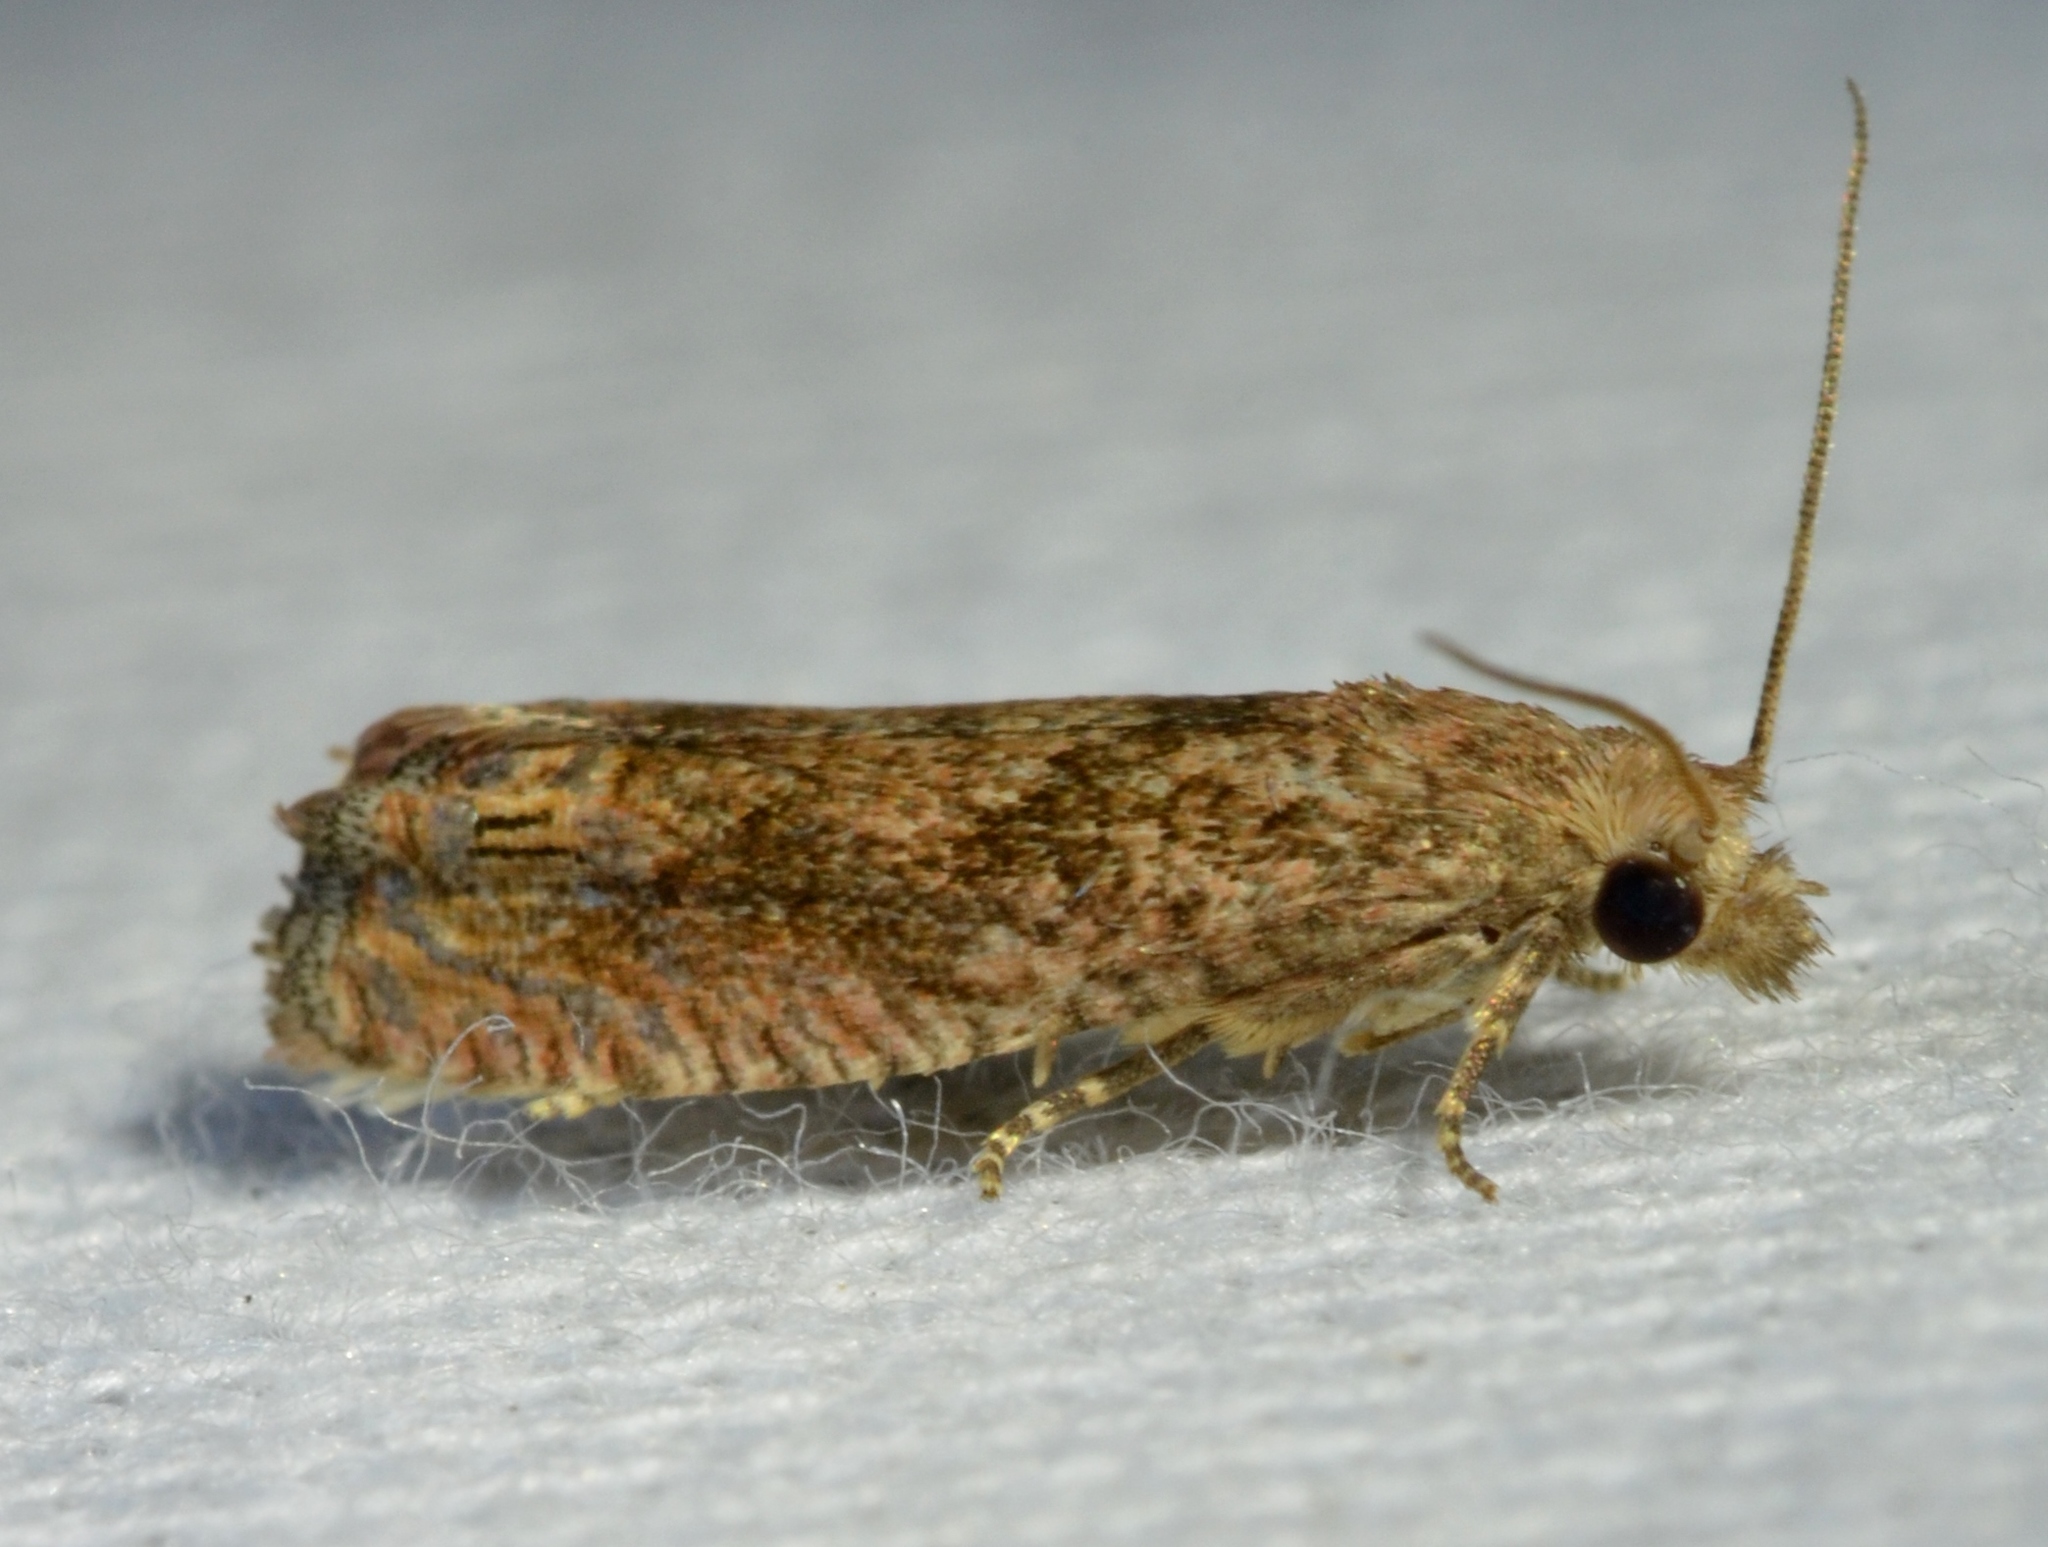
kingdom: Animalia
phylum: Arthropoda
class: Insecta
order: Lepidoptera
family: Tortricidae
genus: Pelochrista
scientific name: Pelochrista vagana
